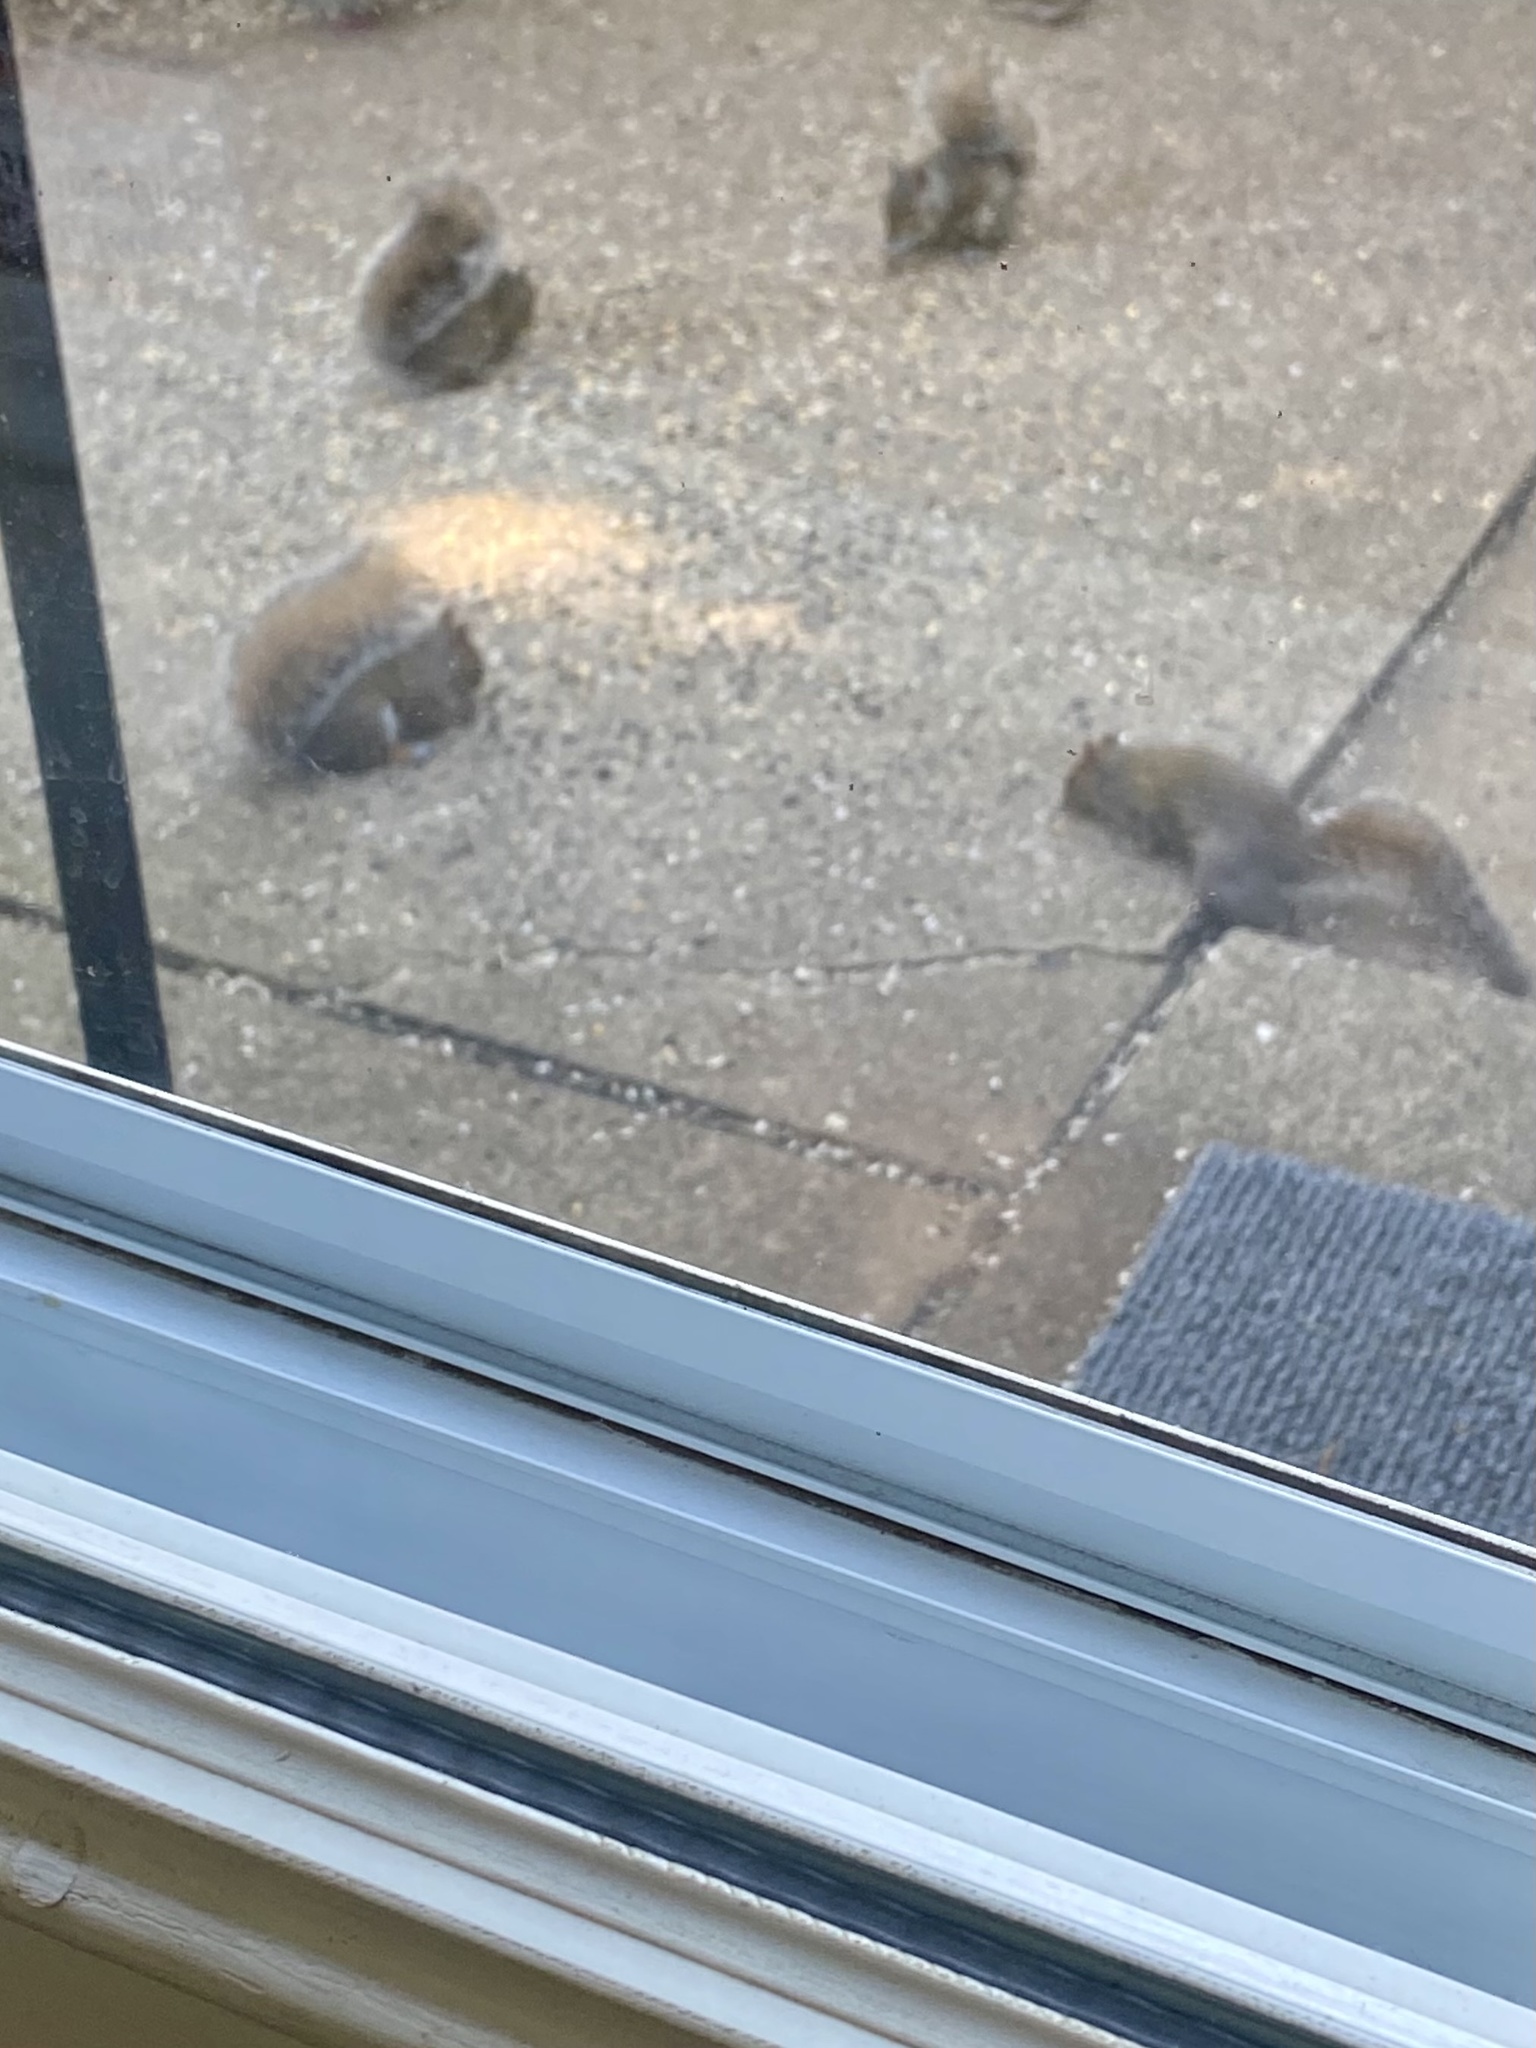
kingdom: Animalia
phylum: Chordata
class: Mammalia
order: Rodentia
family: Sciuridae
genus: Sciurus
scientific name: Sciurus carolinensis
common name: Eastern gray squirrel
